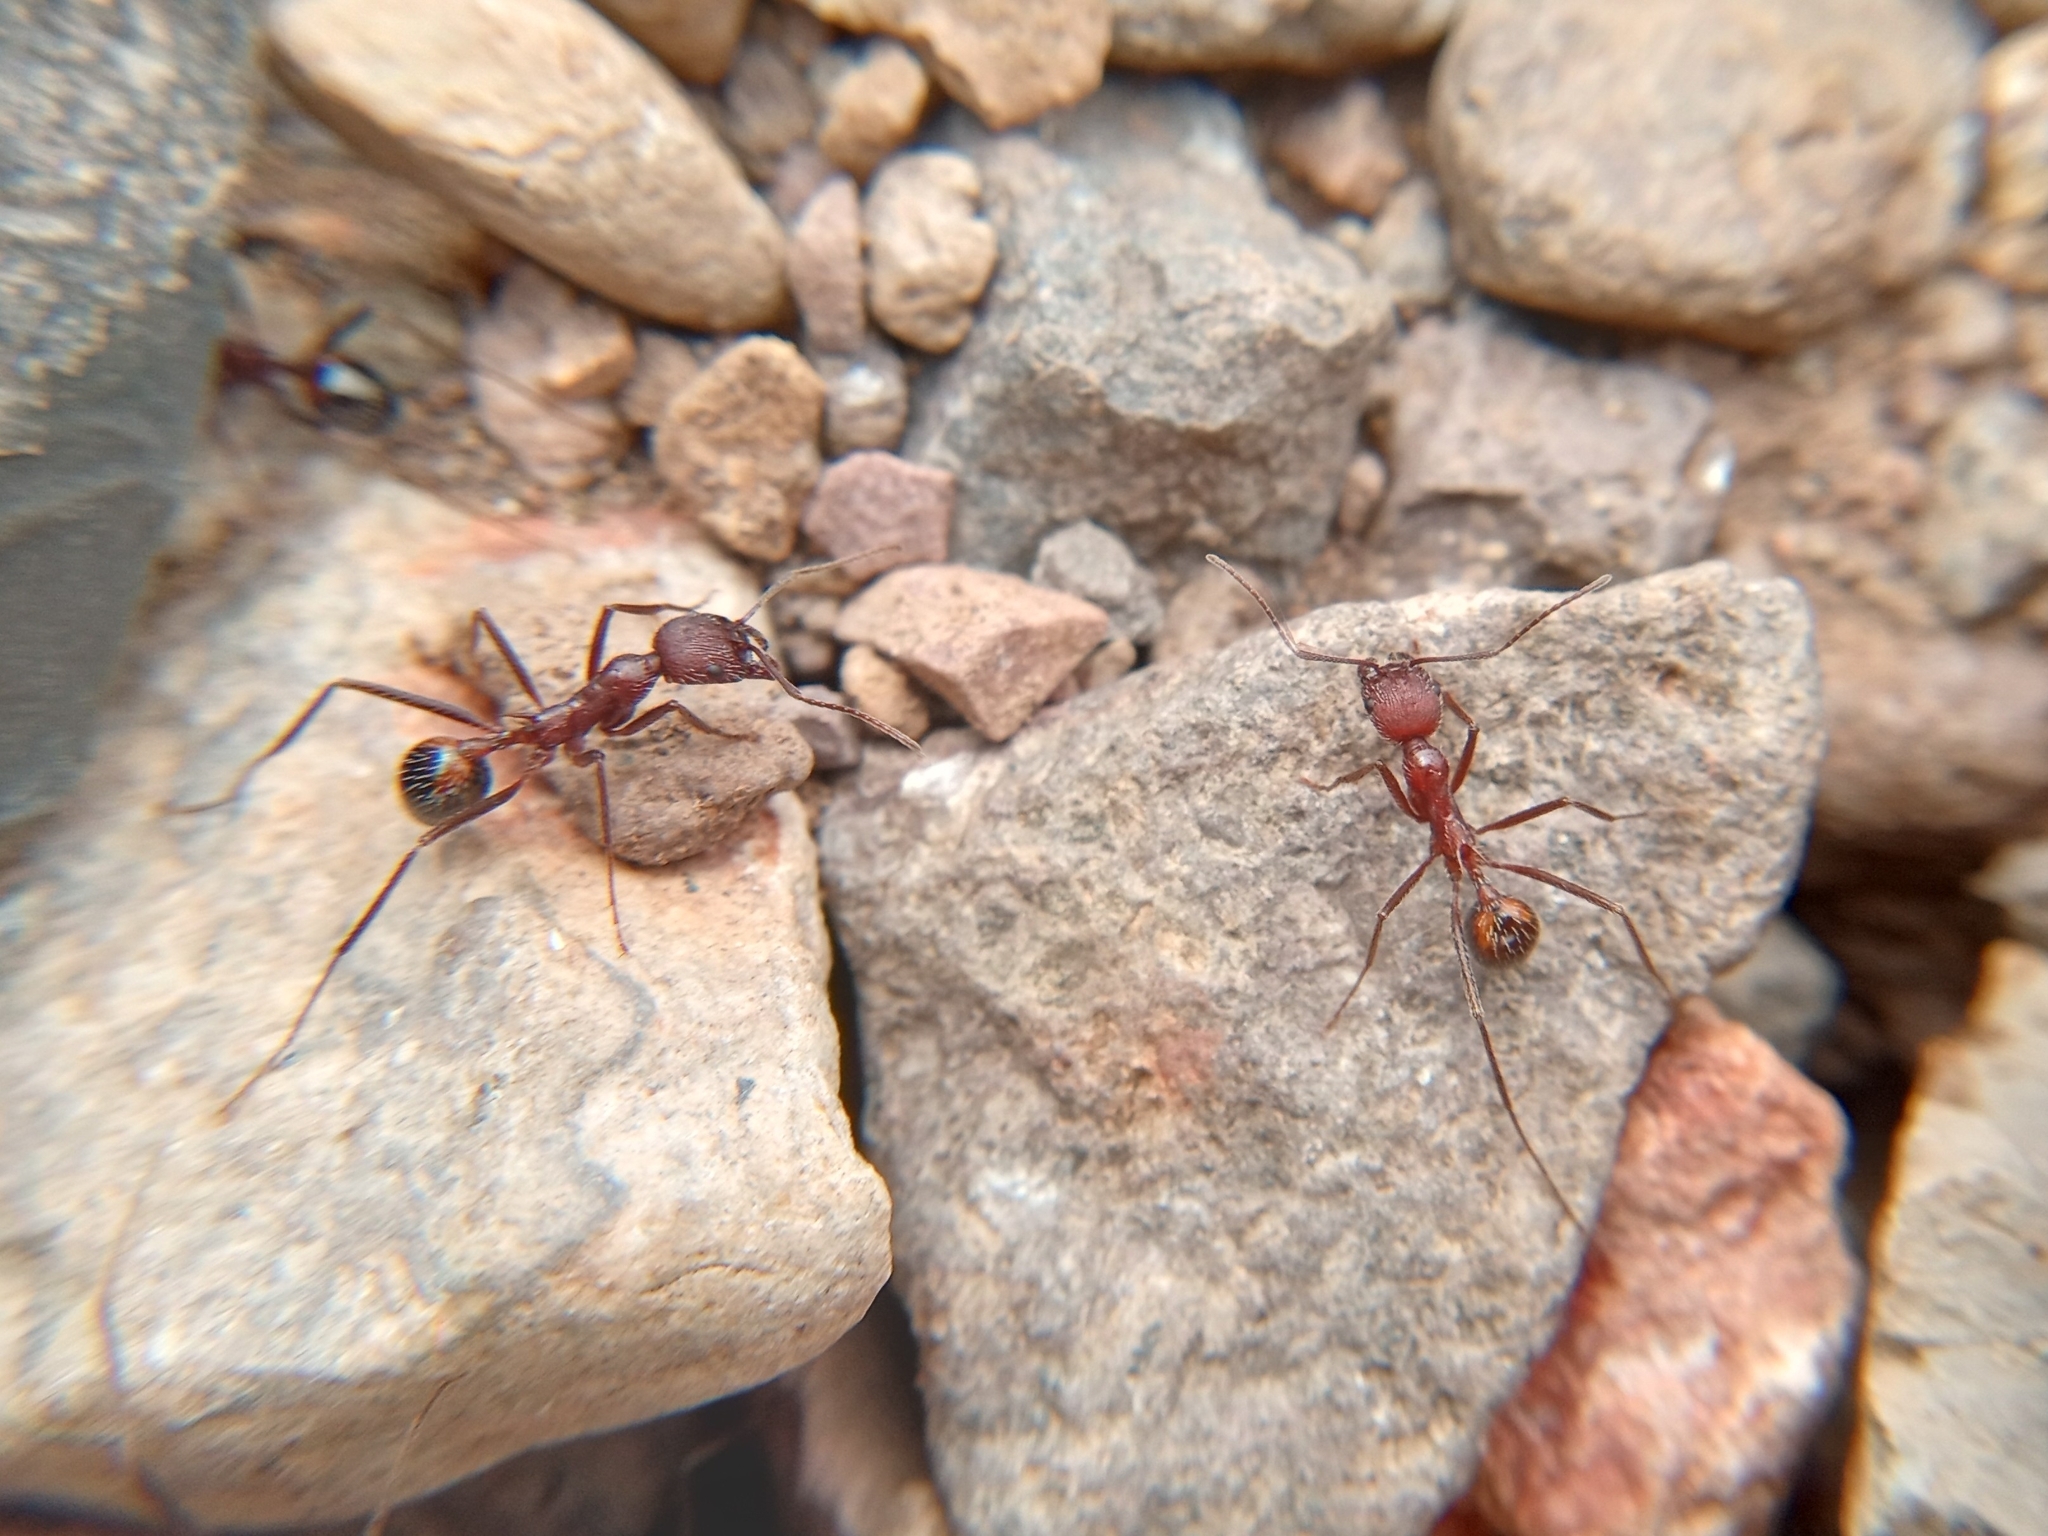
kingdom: Animalia
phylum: Arthropoda
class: Insecta
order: Hymenoptera
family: Formicidae
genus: Novomessor
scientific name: Novomessor albisetosa
